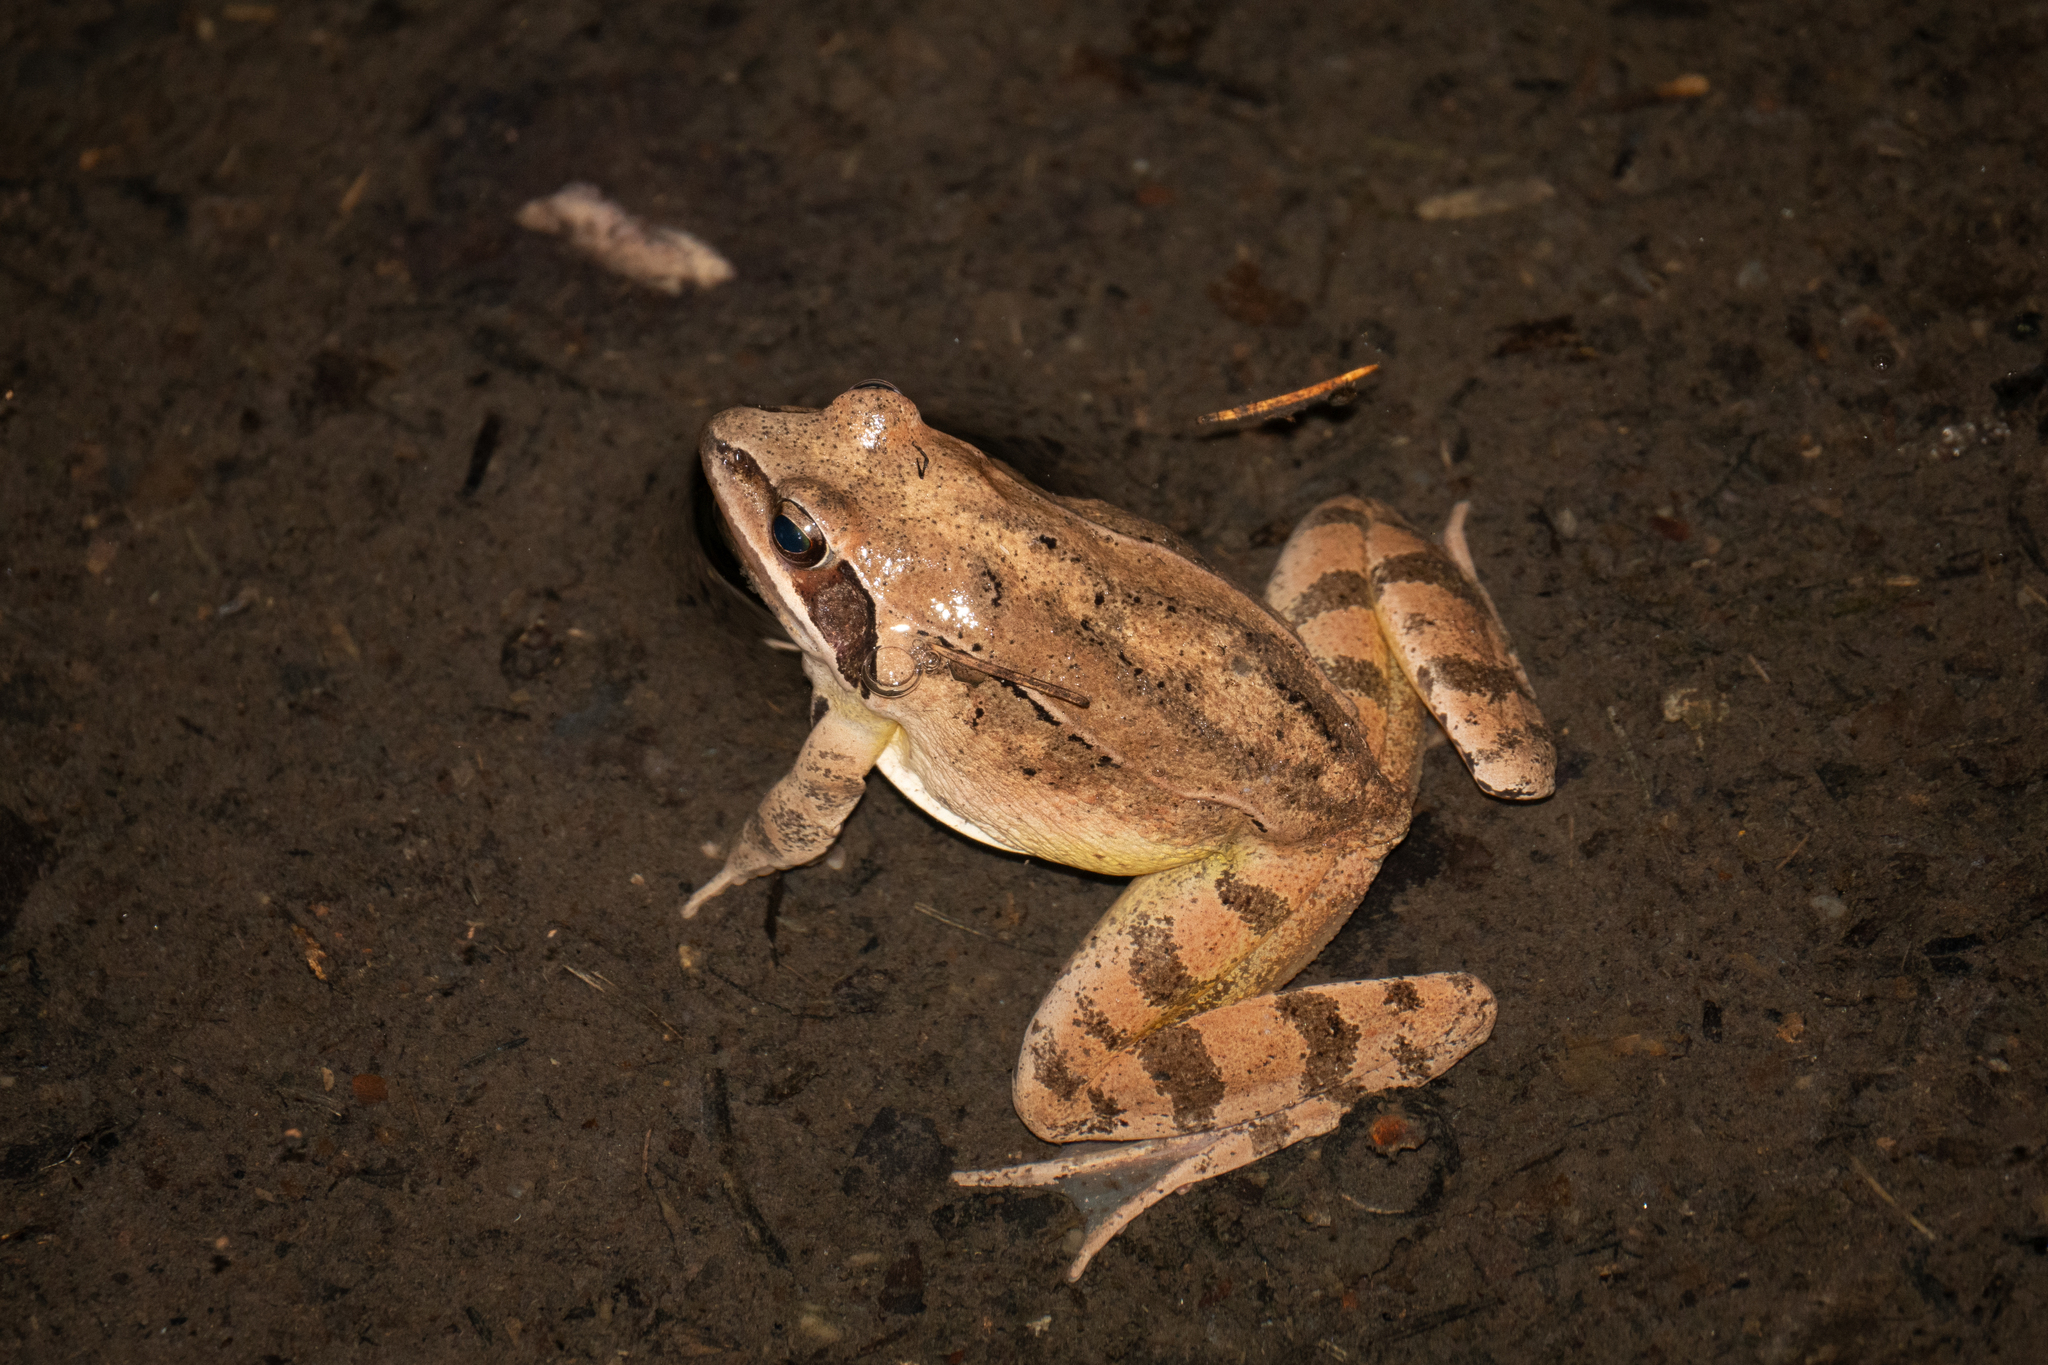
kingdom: Animalia
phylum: Chordata
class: Amphibia
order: Anura
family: Ranidae
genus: Rana
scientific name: Rana dalmatina
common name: Agile frog
